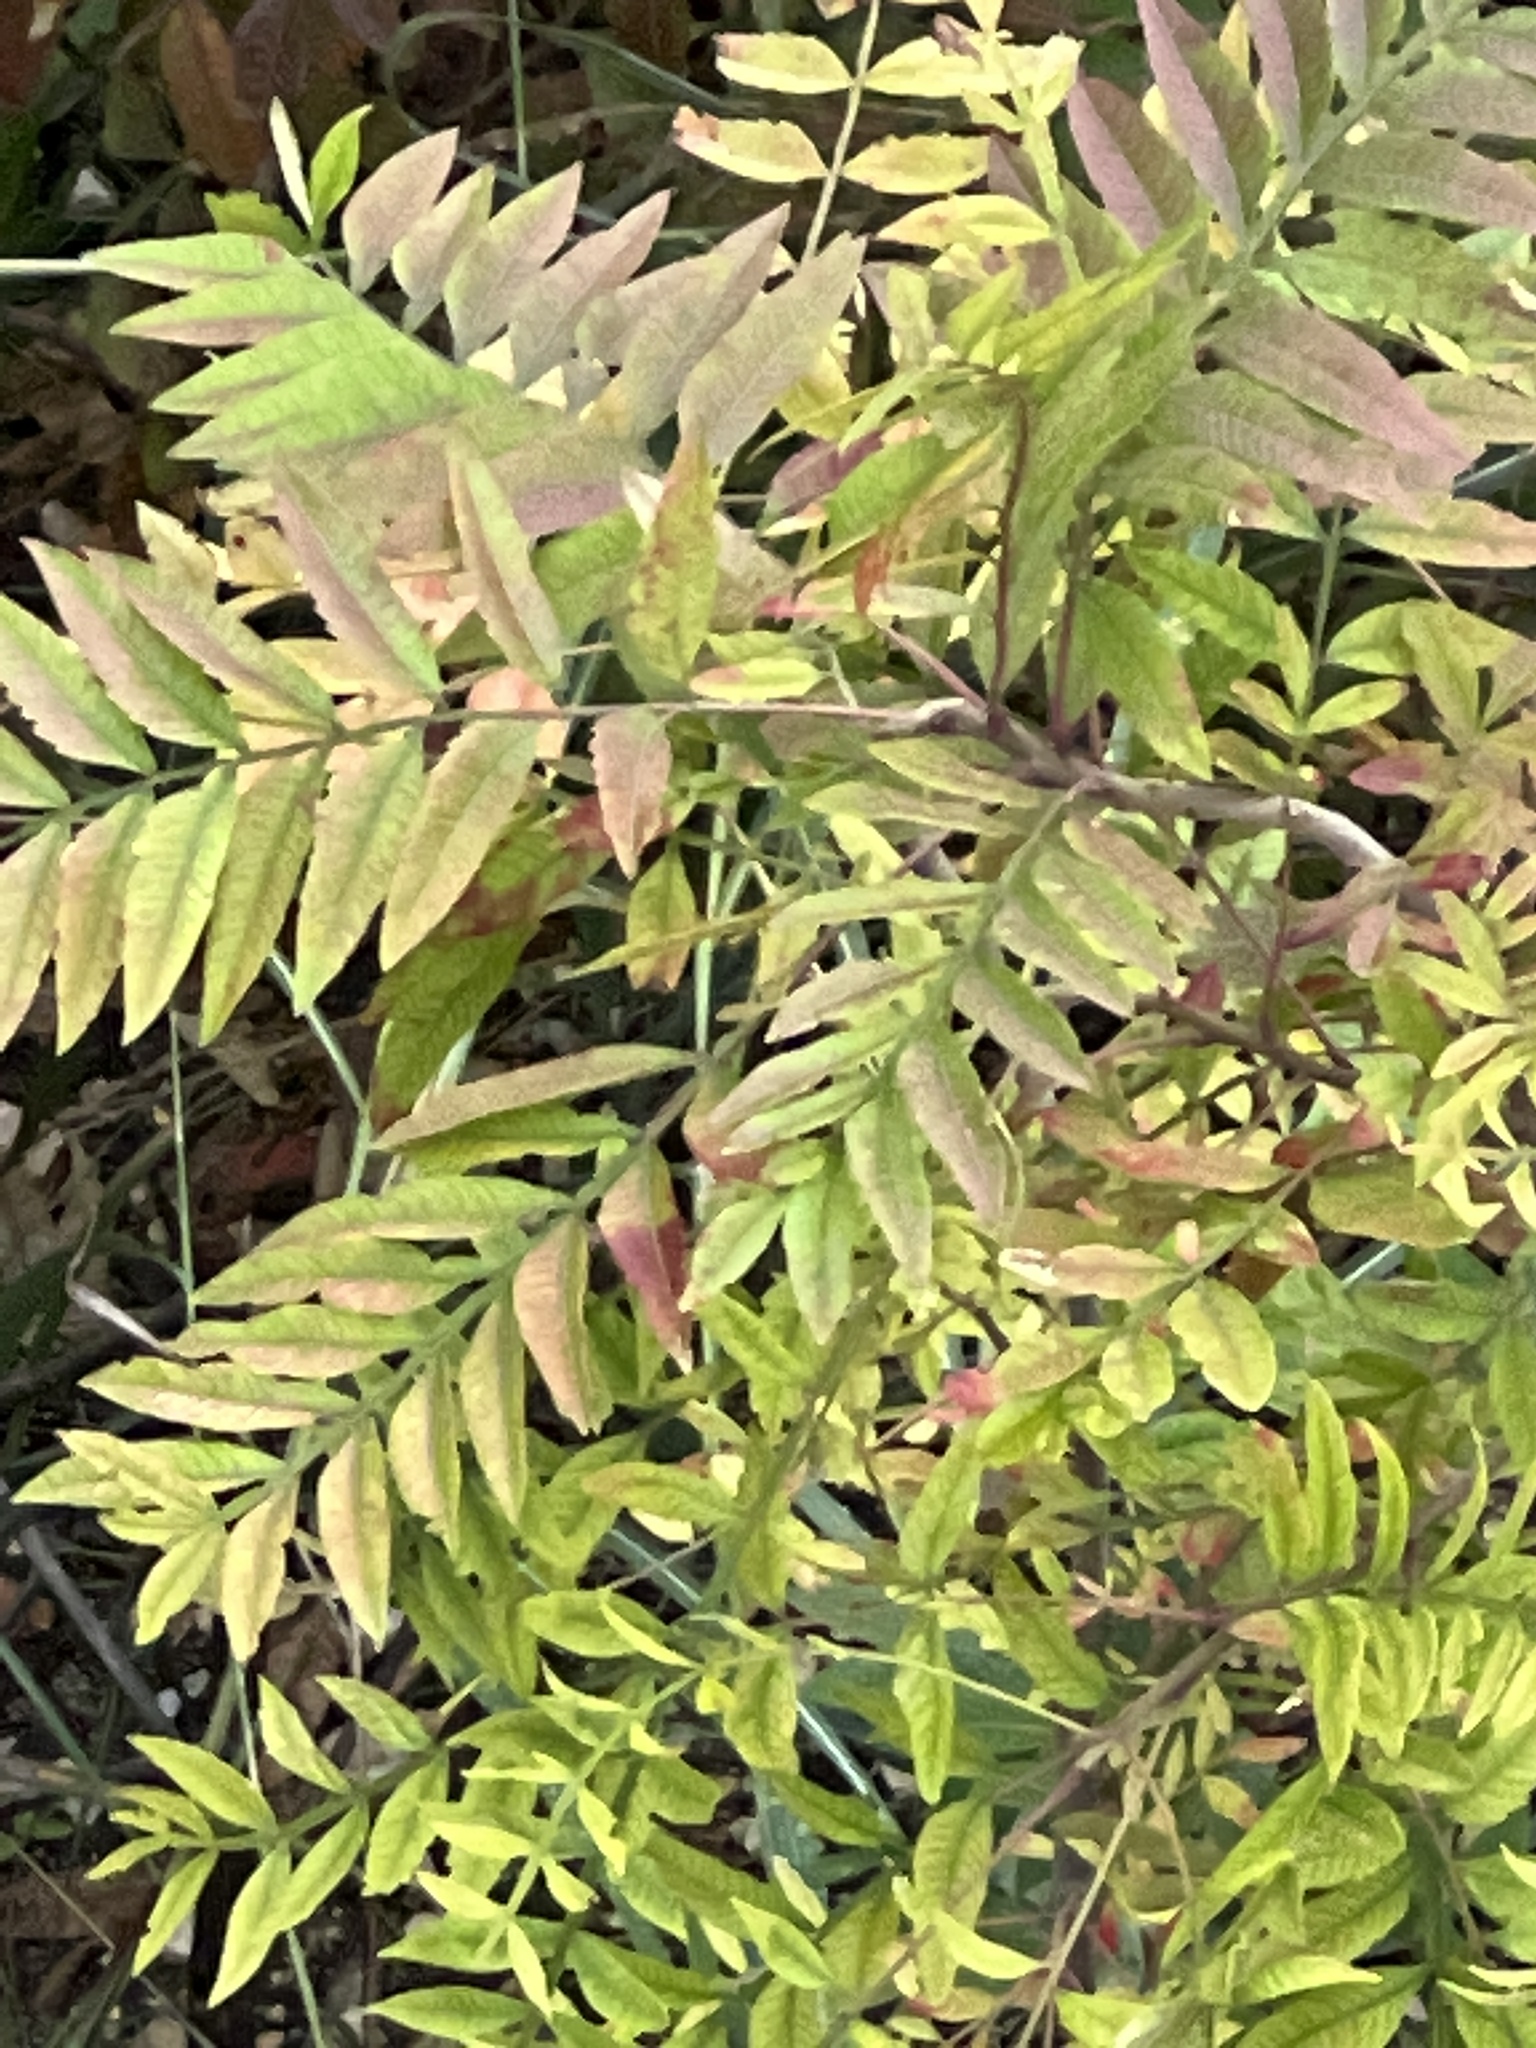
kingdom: Plantae
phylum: Tracheophyta
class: Magnoliopsida
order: Sapindales
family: Anacardiaceae
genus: Pistacia
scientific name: Pistacia chinensis
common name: Chinese pistache
